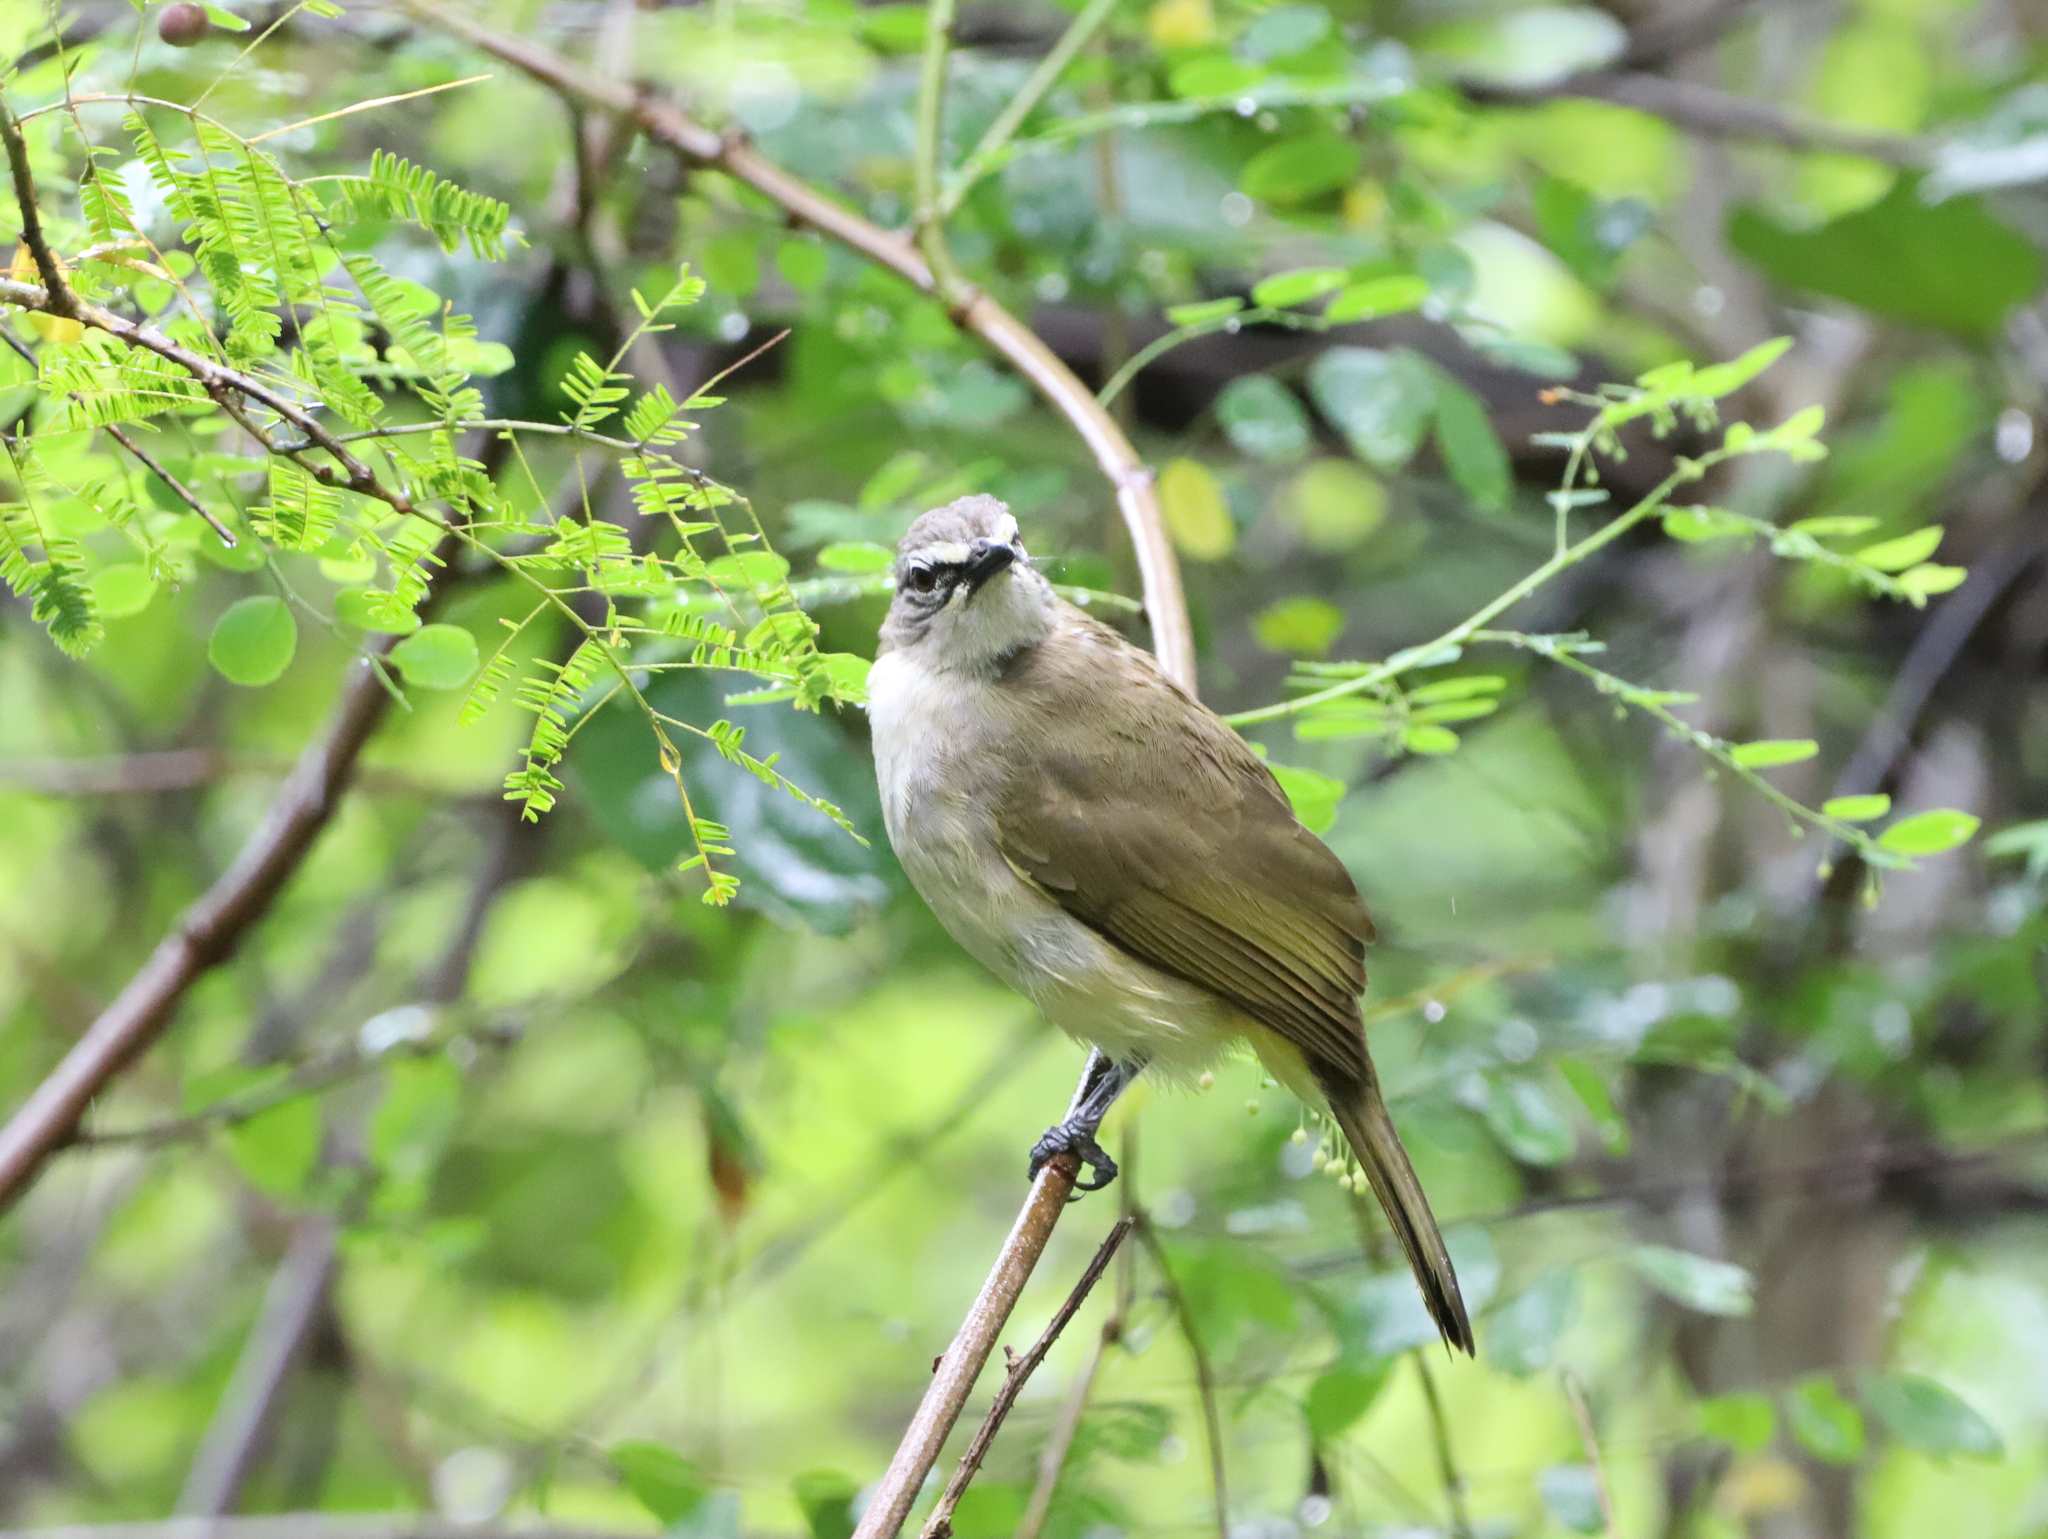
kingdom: Animalia
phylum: Chordata
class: Aves
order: Passeriformes
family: Pycnonotidae
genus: Pycnonotus
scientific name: Pycnonotus luteolus
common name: White-browed bulbul
